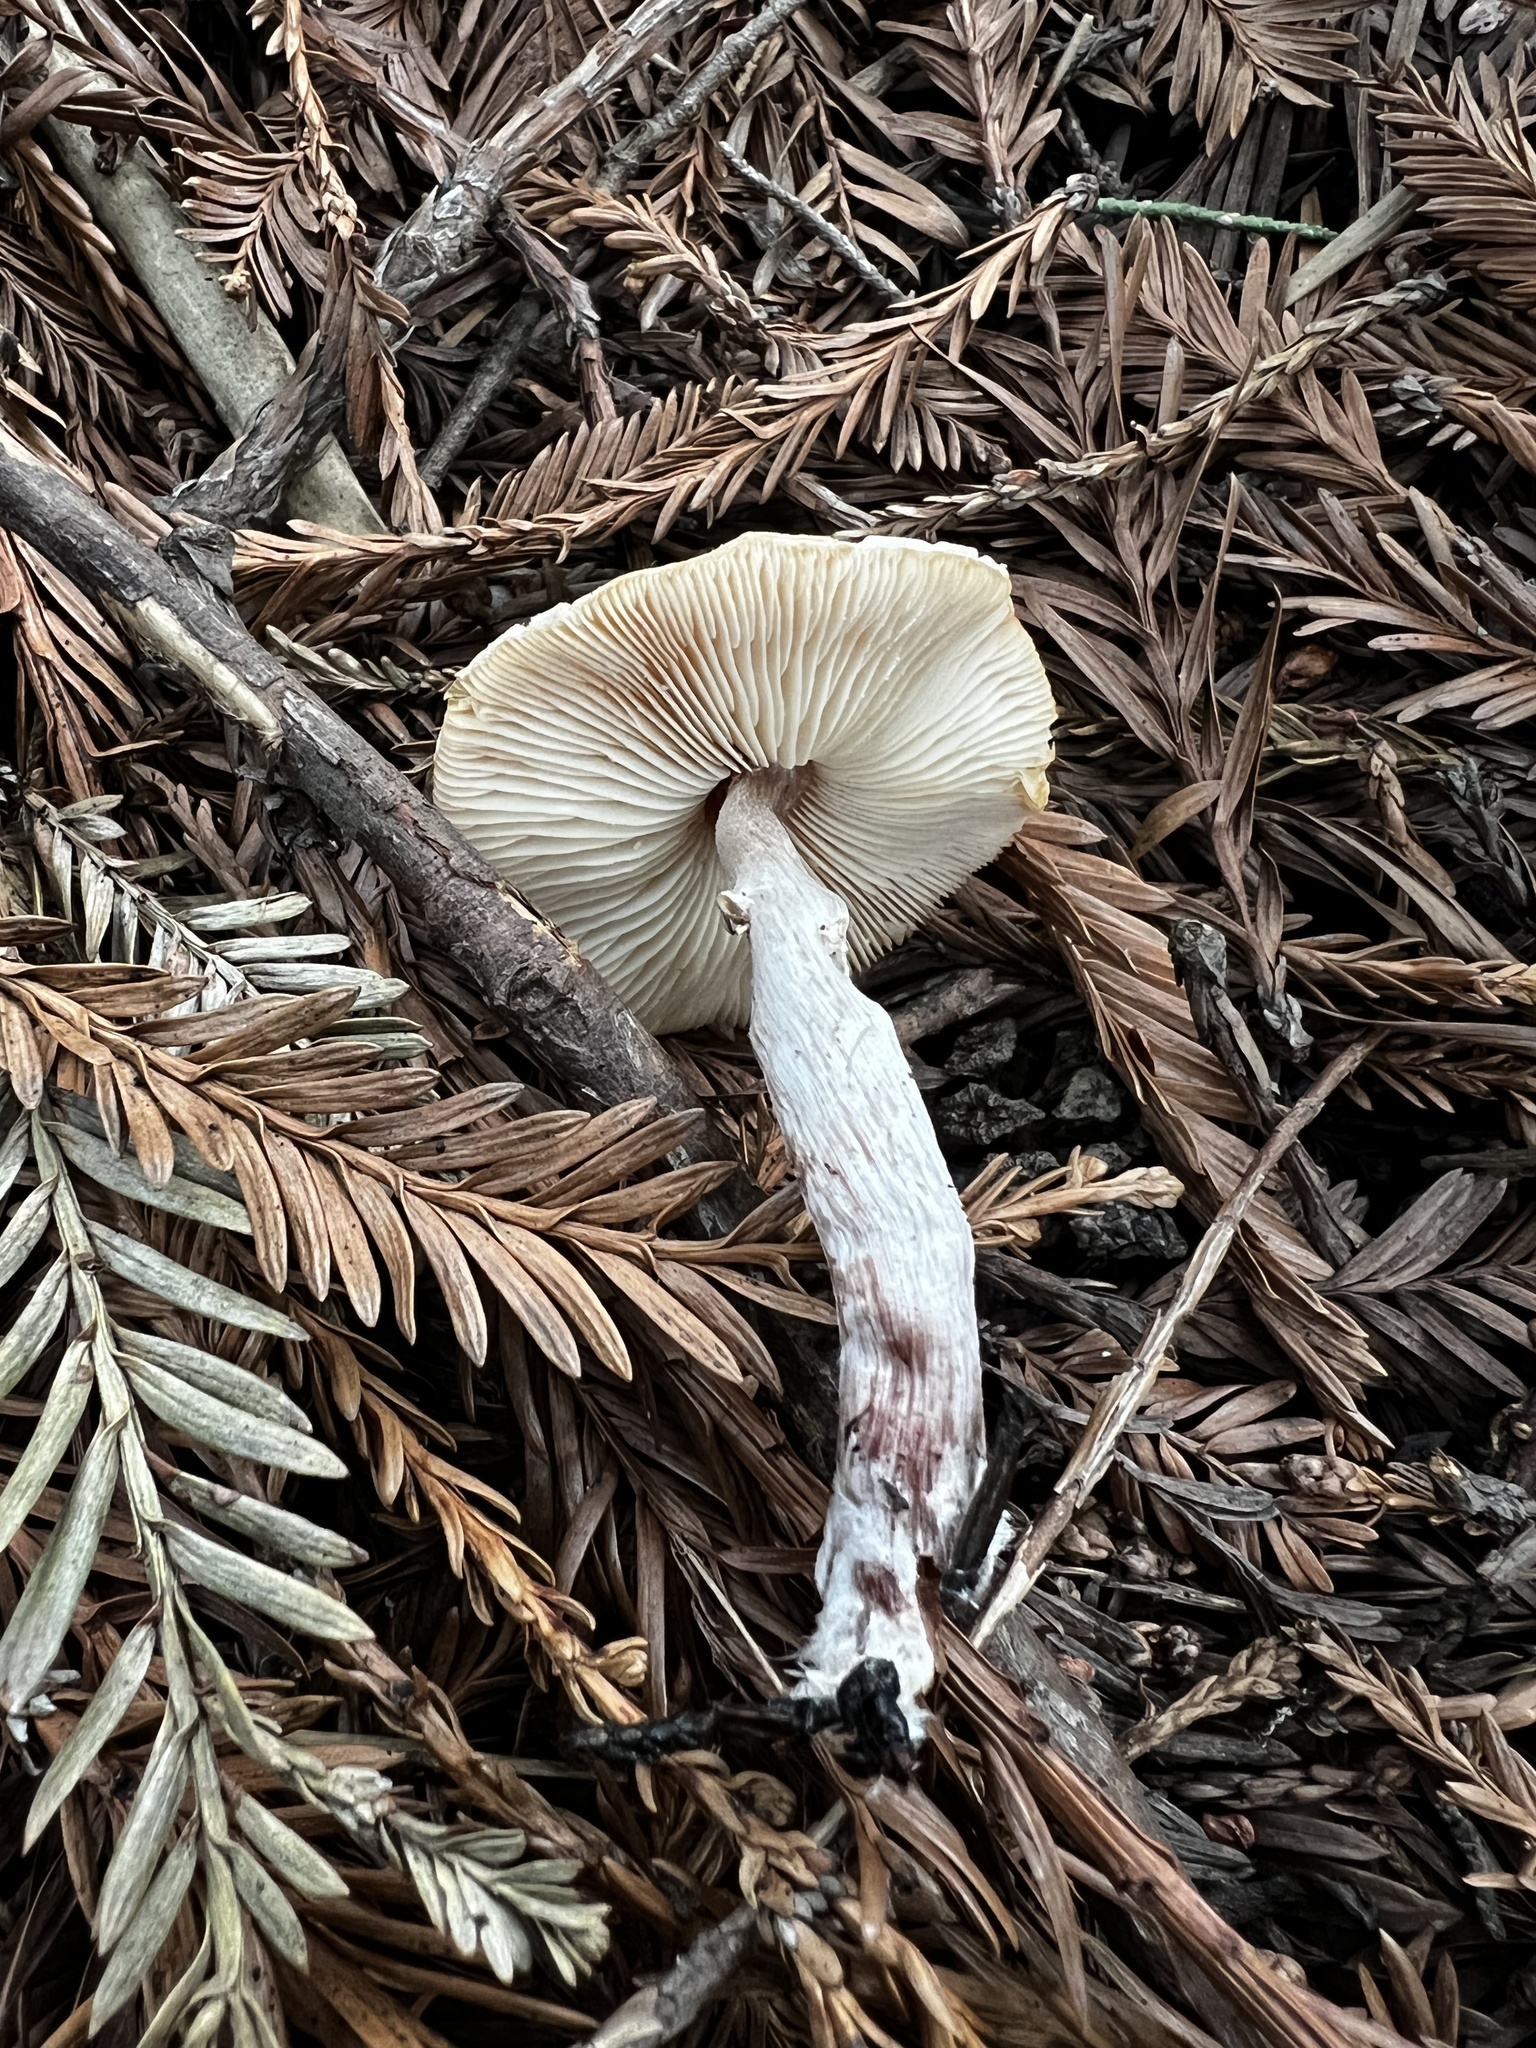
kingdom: Fungi
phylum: Basidiomycota
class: Agaricomycetes
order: Agaricales
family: Agaricaceae
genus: Lepiota
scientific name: Lepiota castaneidisca
